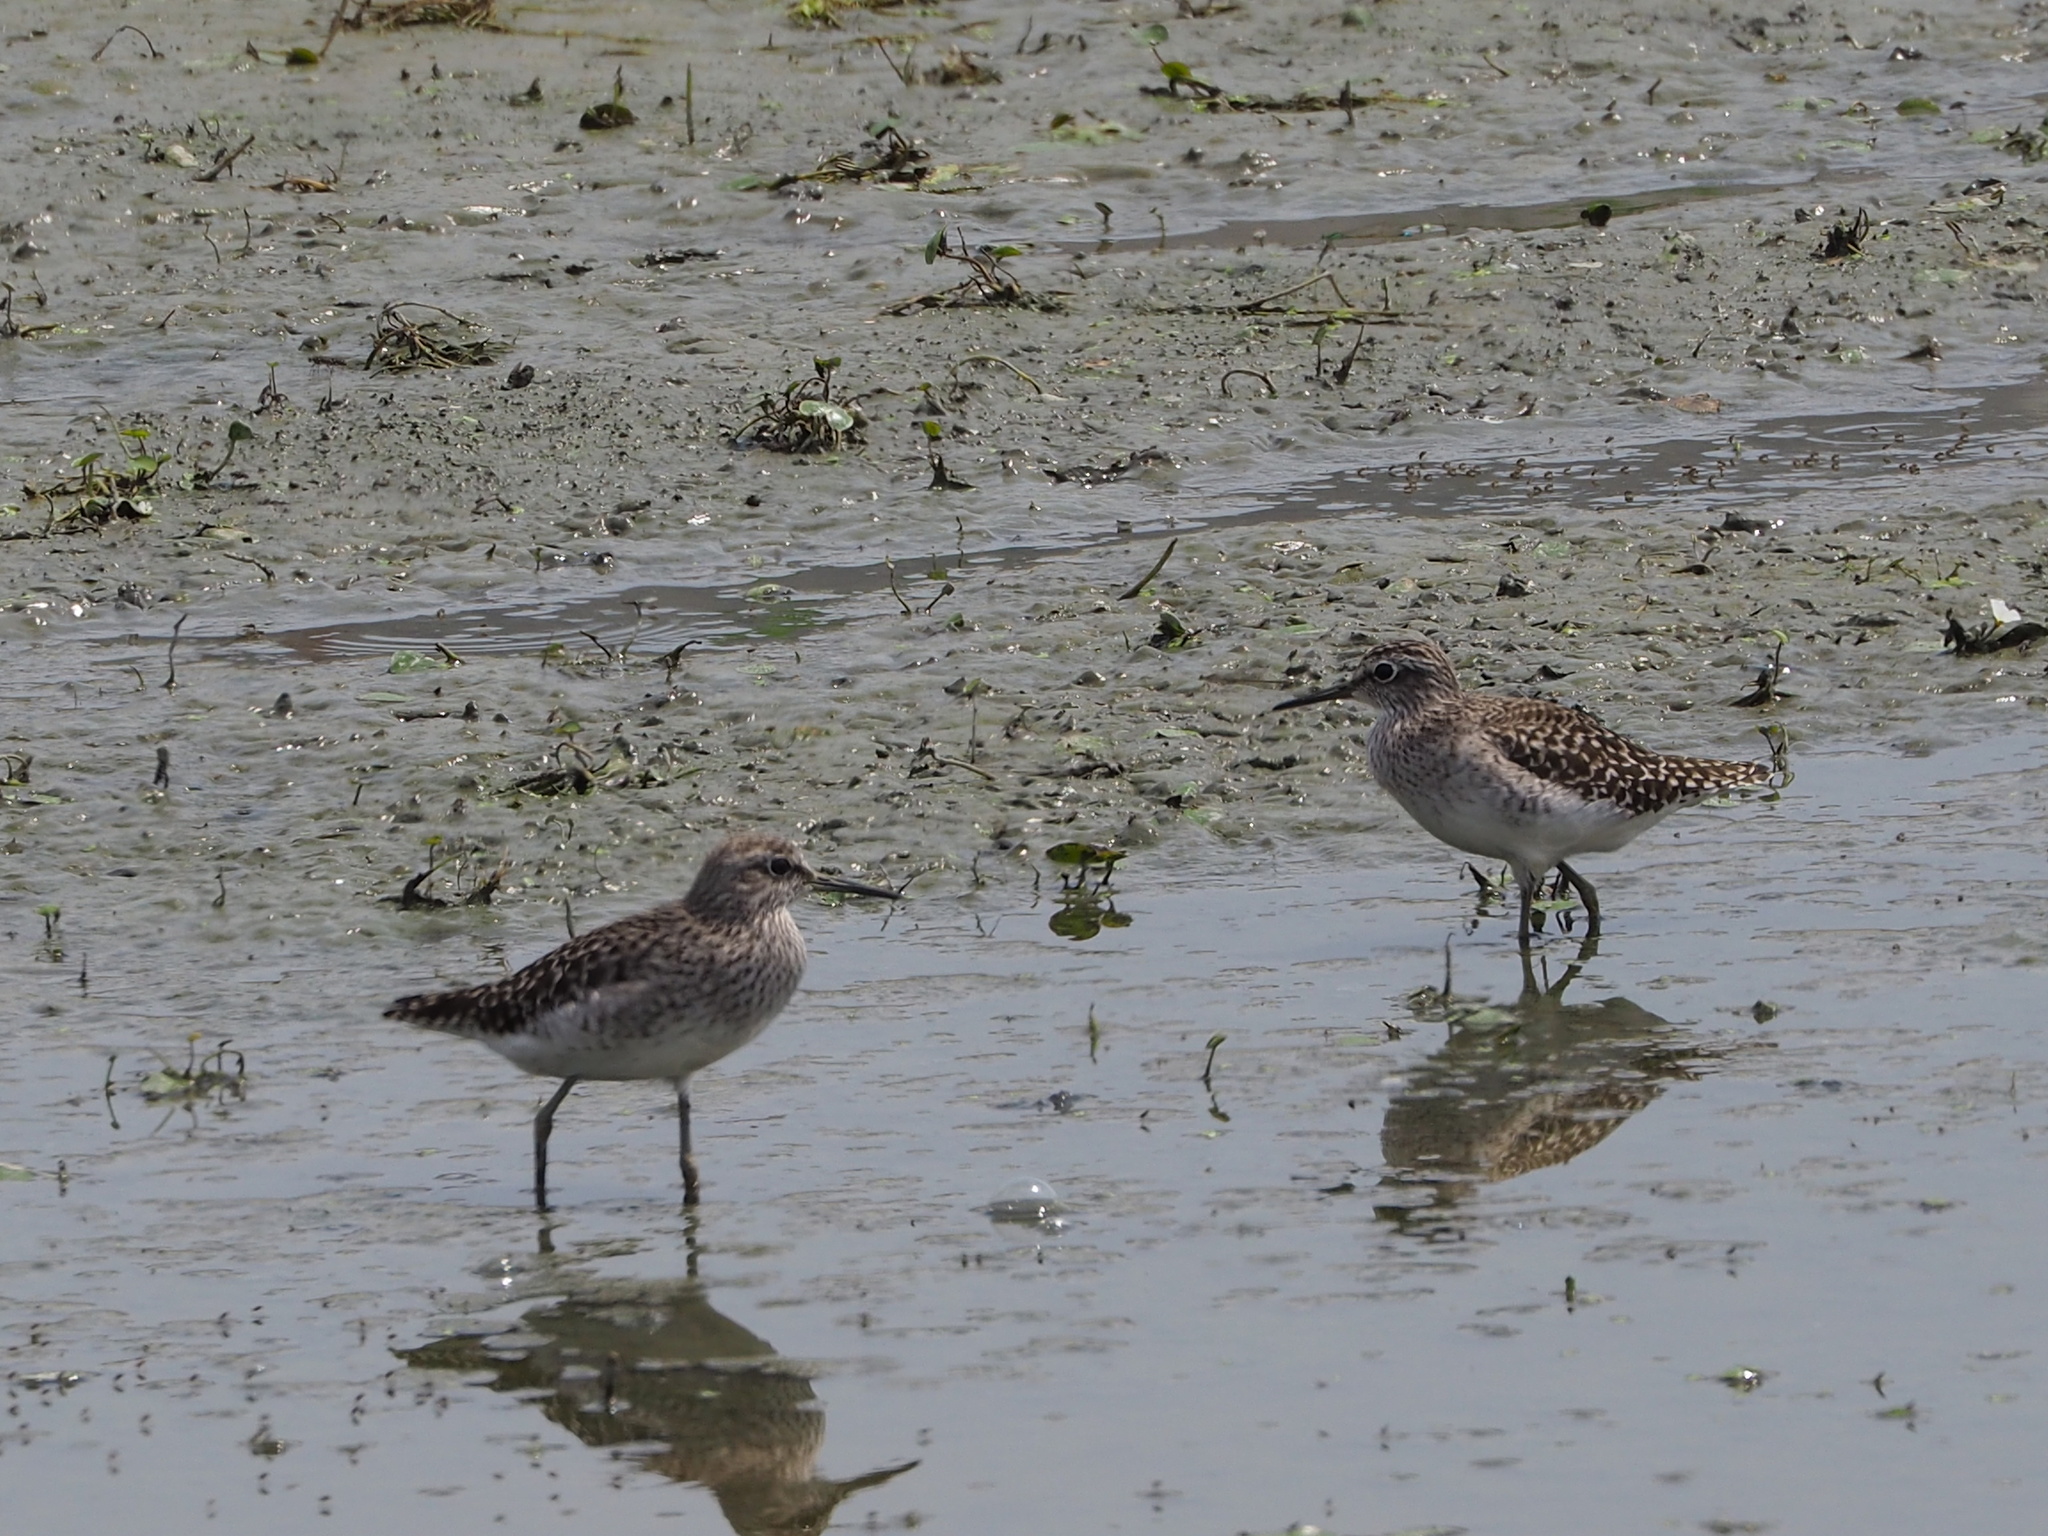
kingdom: Animalia
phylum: Chordata
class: Aves
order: Charadriiformes
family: Scolopacidae
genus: Tringa
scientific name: Tringa glareola
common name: Wood sandpiper
